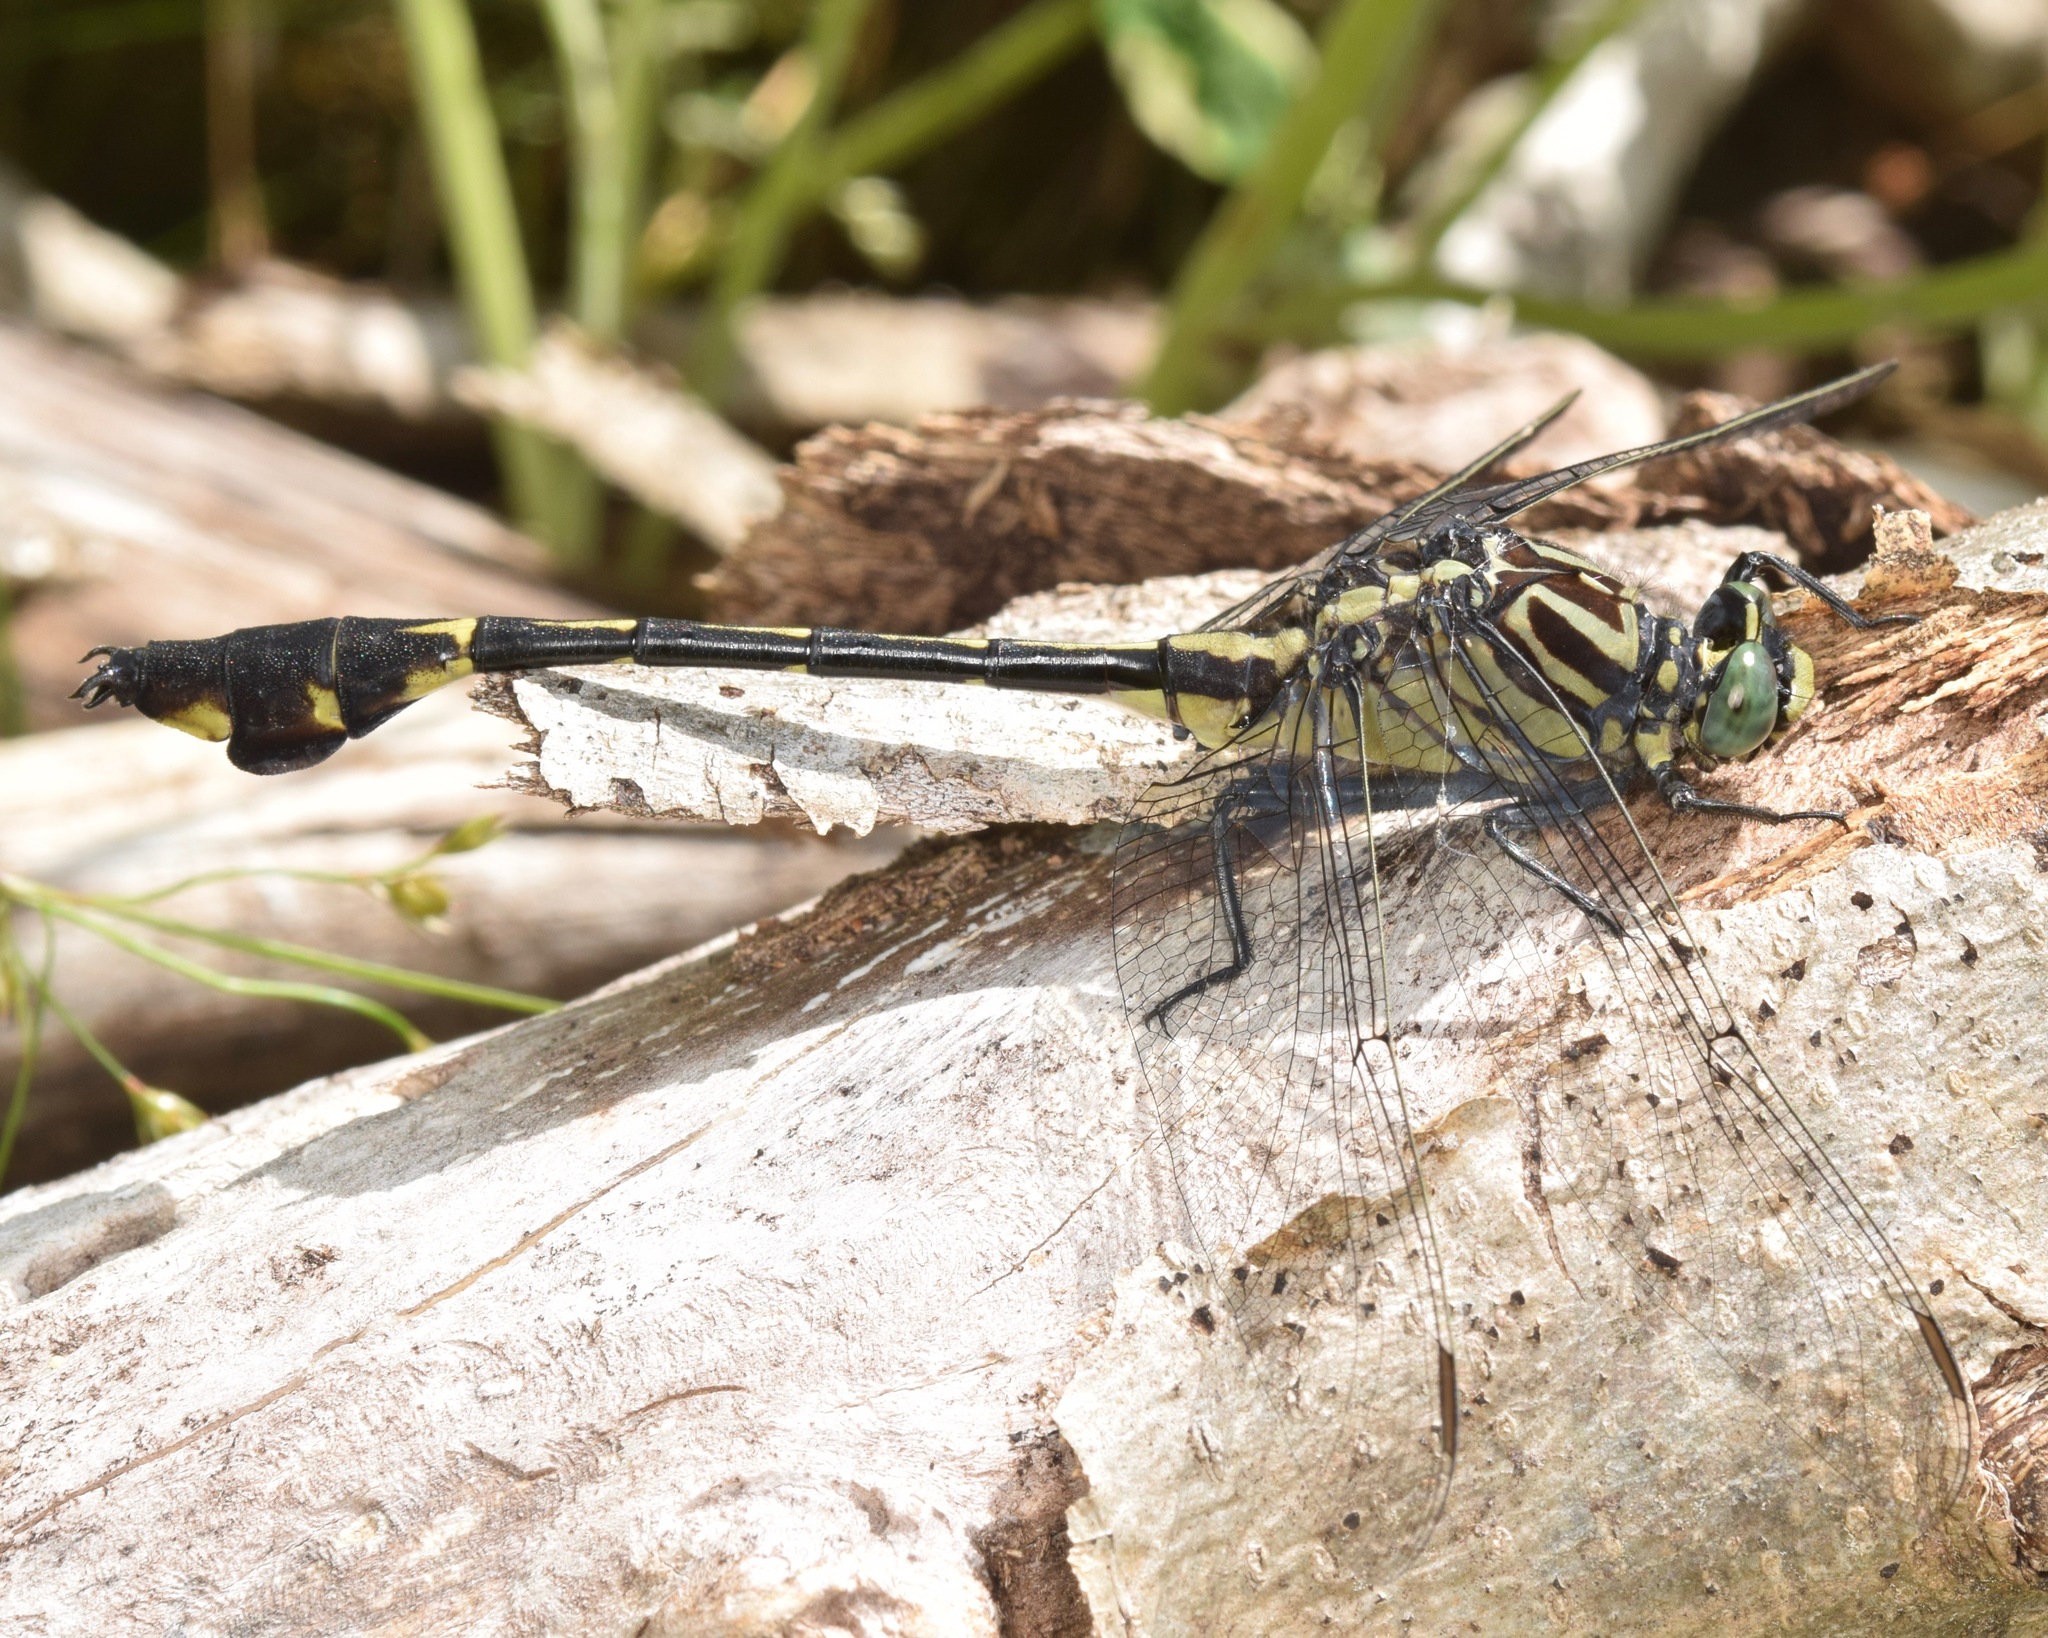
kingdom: Animalia
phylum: Arthropoda
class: Insecta
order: Odonata
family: Gomphidae
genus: Gomphurus
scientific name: Gomphurus dilatatus
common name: Blackwater clubtail
